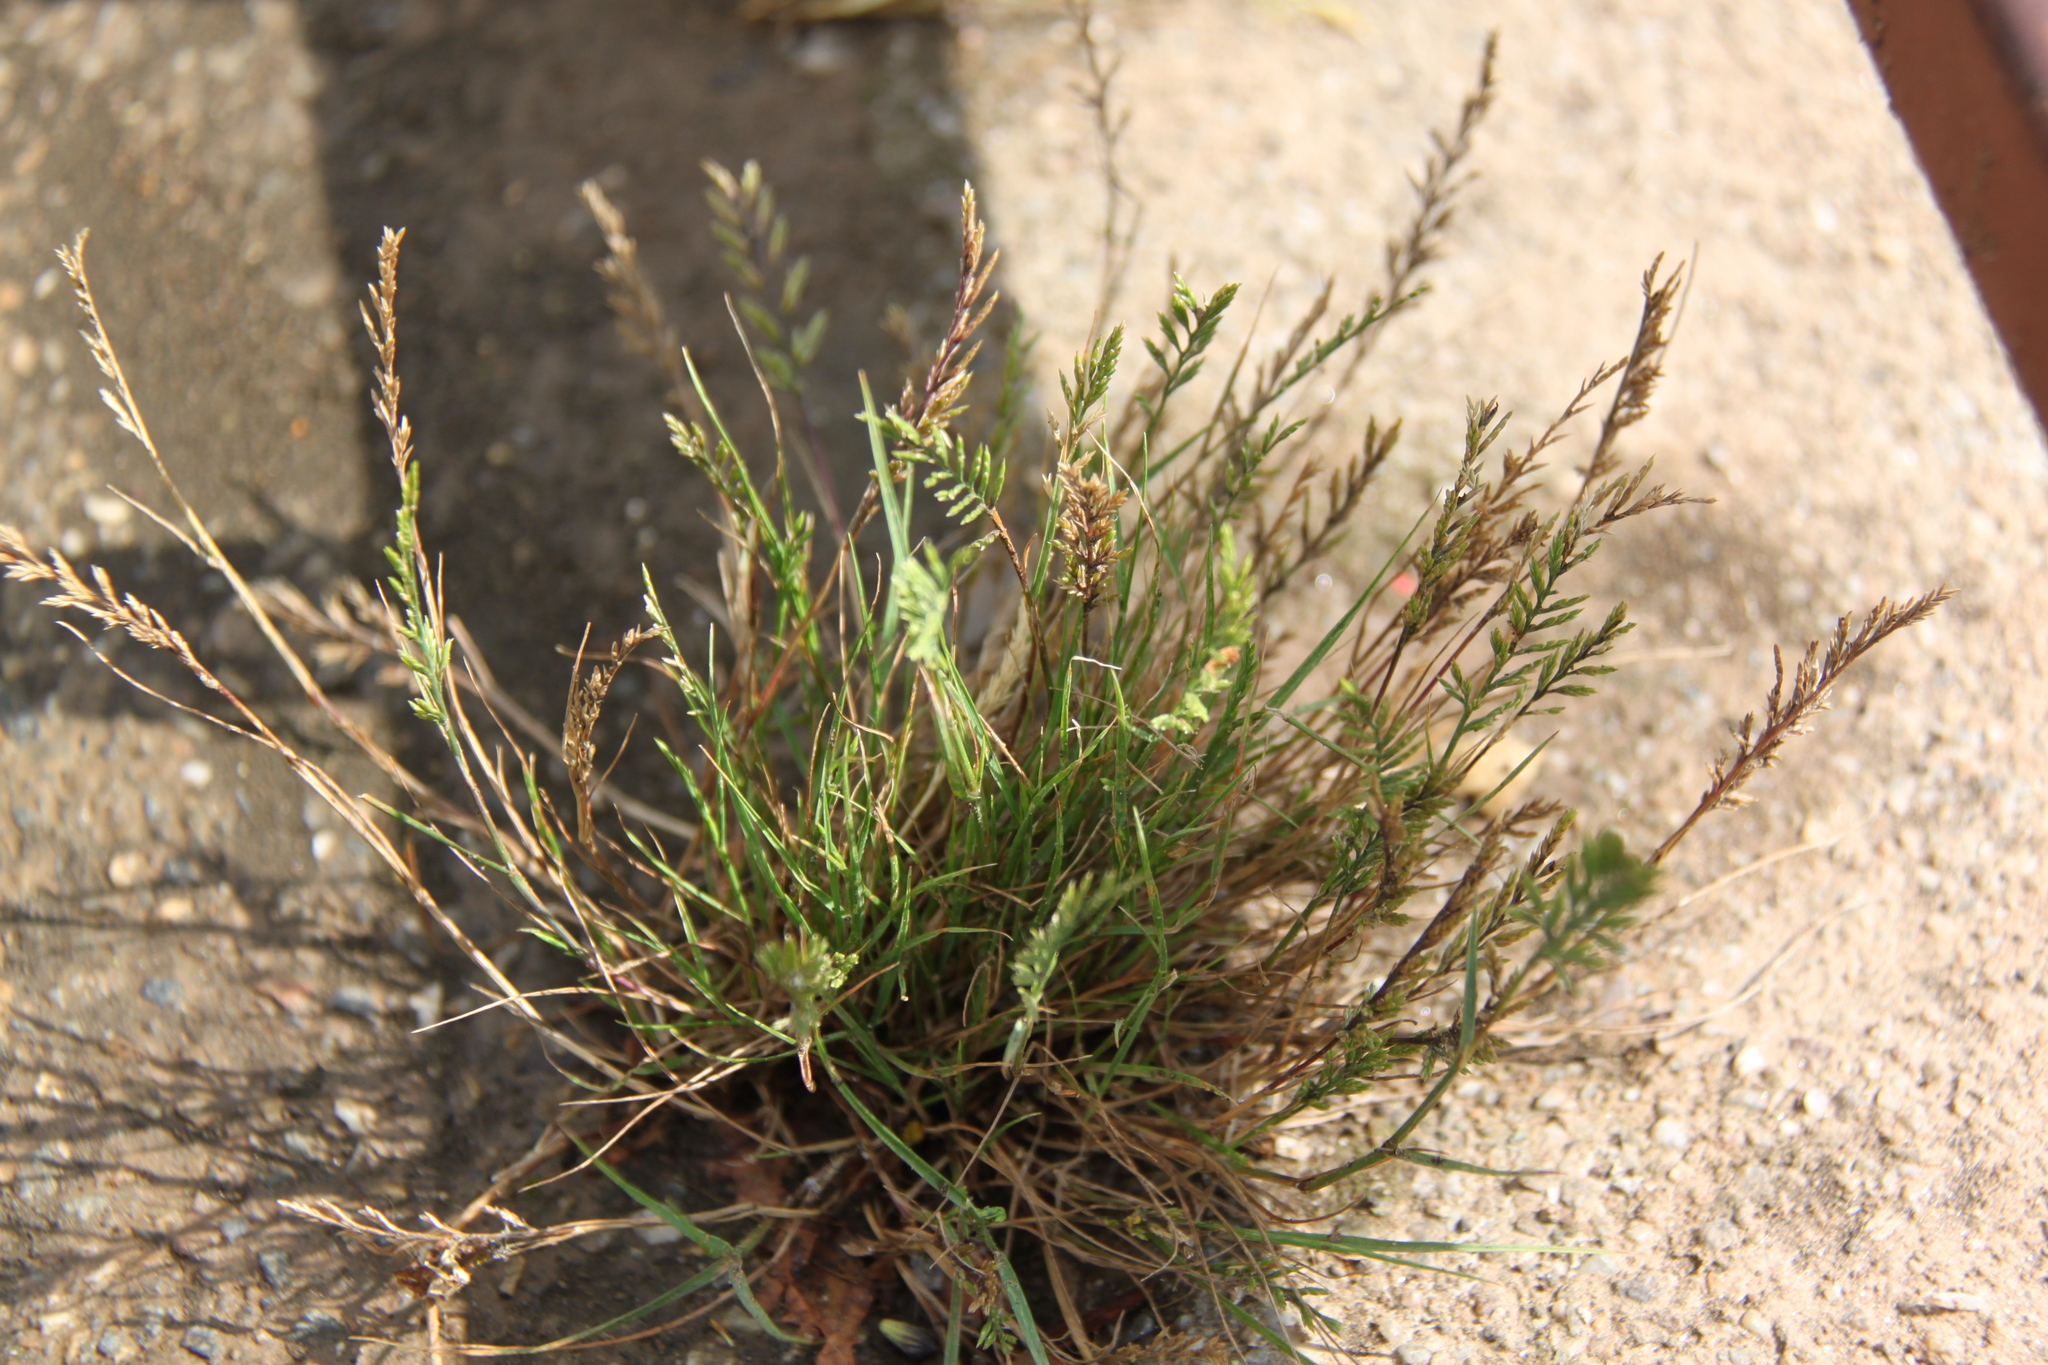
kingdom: Plantae
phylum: Tracheophyta
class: Liliopsida
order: Poales
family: Poaceae
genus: Catapodium
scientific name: Catapodium rigidum
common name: Fern-grass
